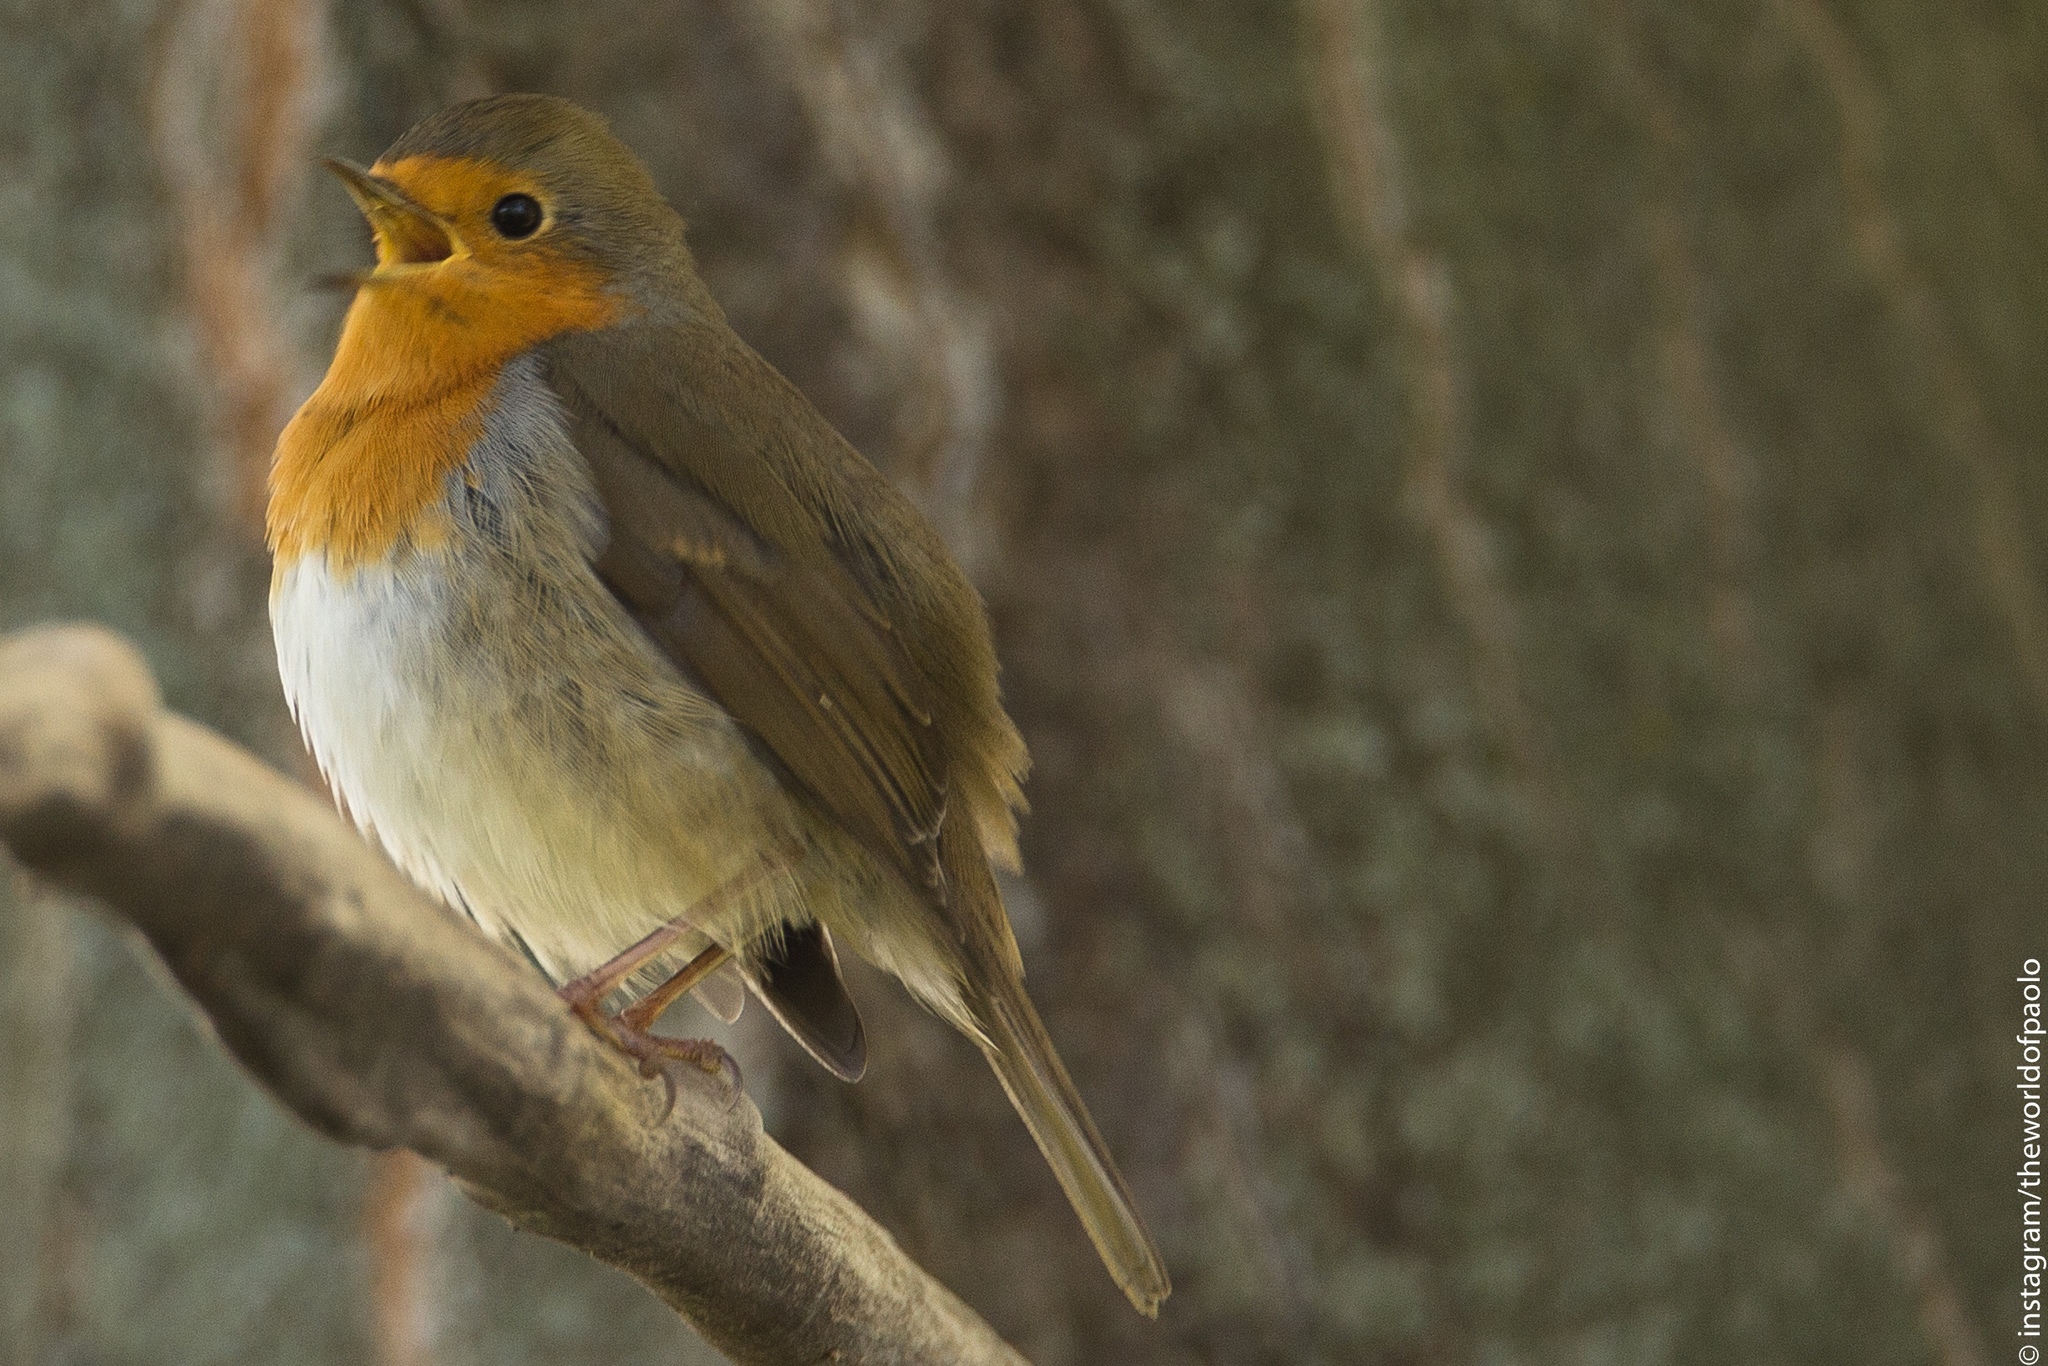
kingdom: Animalia
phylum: Chordata
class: Aves
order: Passeriformes
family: Muscicapidae
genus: Erithacus
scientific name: Erithacus rubecula
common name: European robin
